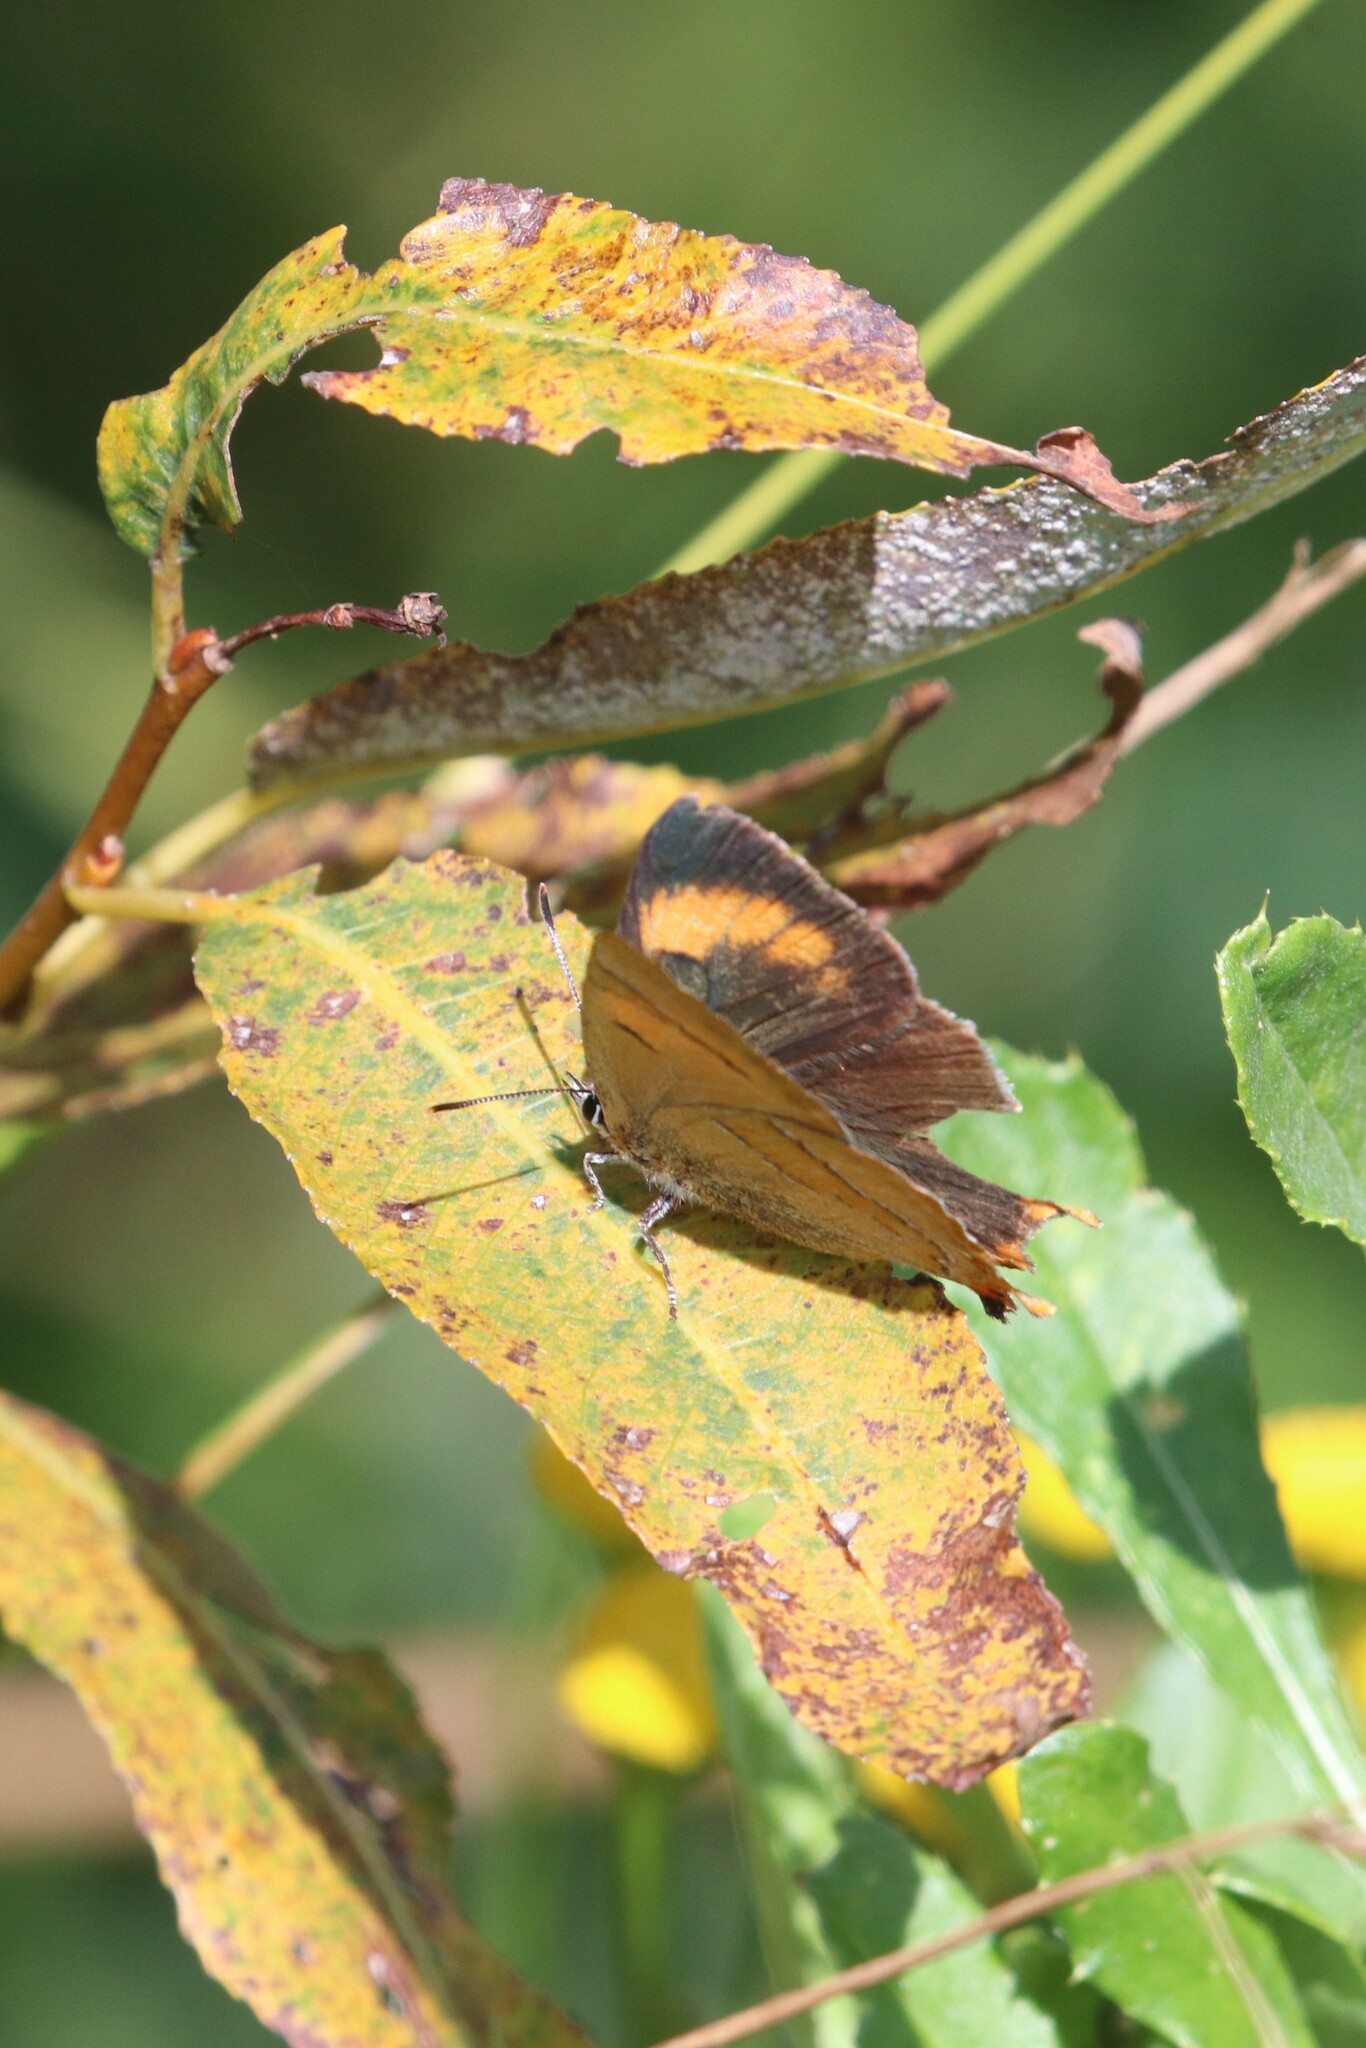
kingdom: Animalia
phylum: Arthropoda
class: Insecta
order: Lepidoptera
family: Lycaenidae
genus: Thecla
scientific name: Thecla betulae
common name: Brown hairstreak
